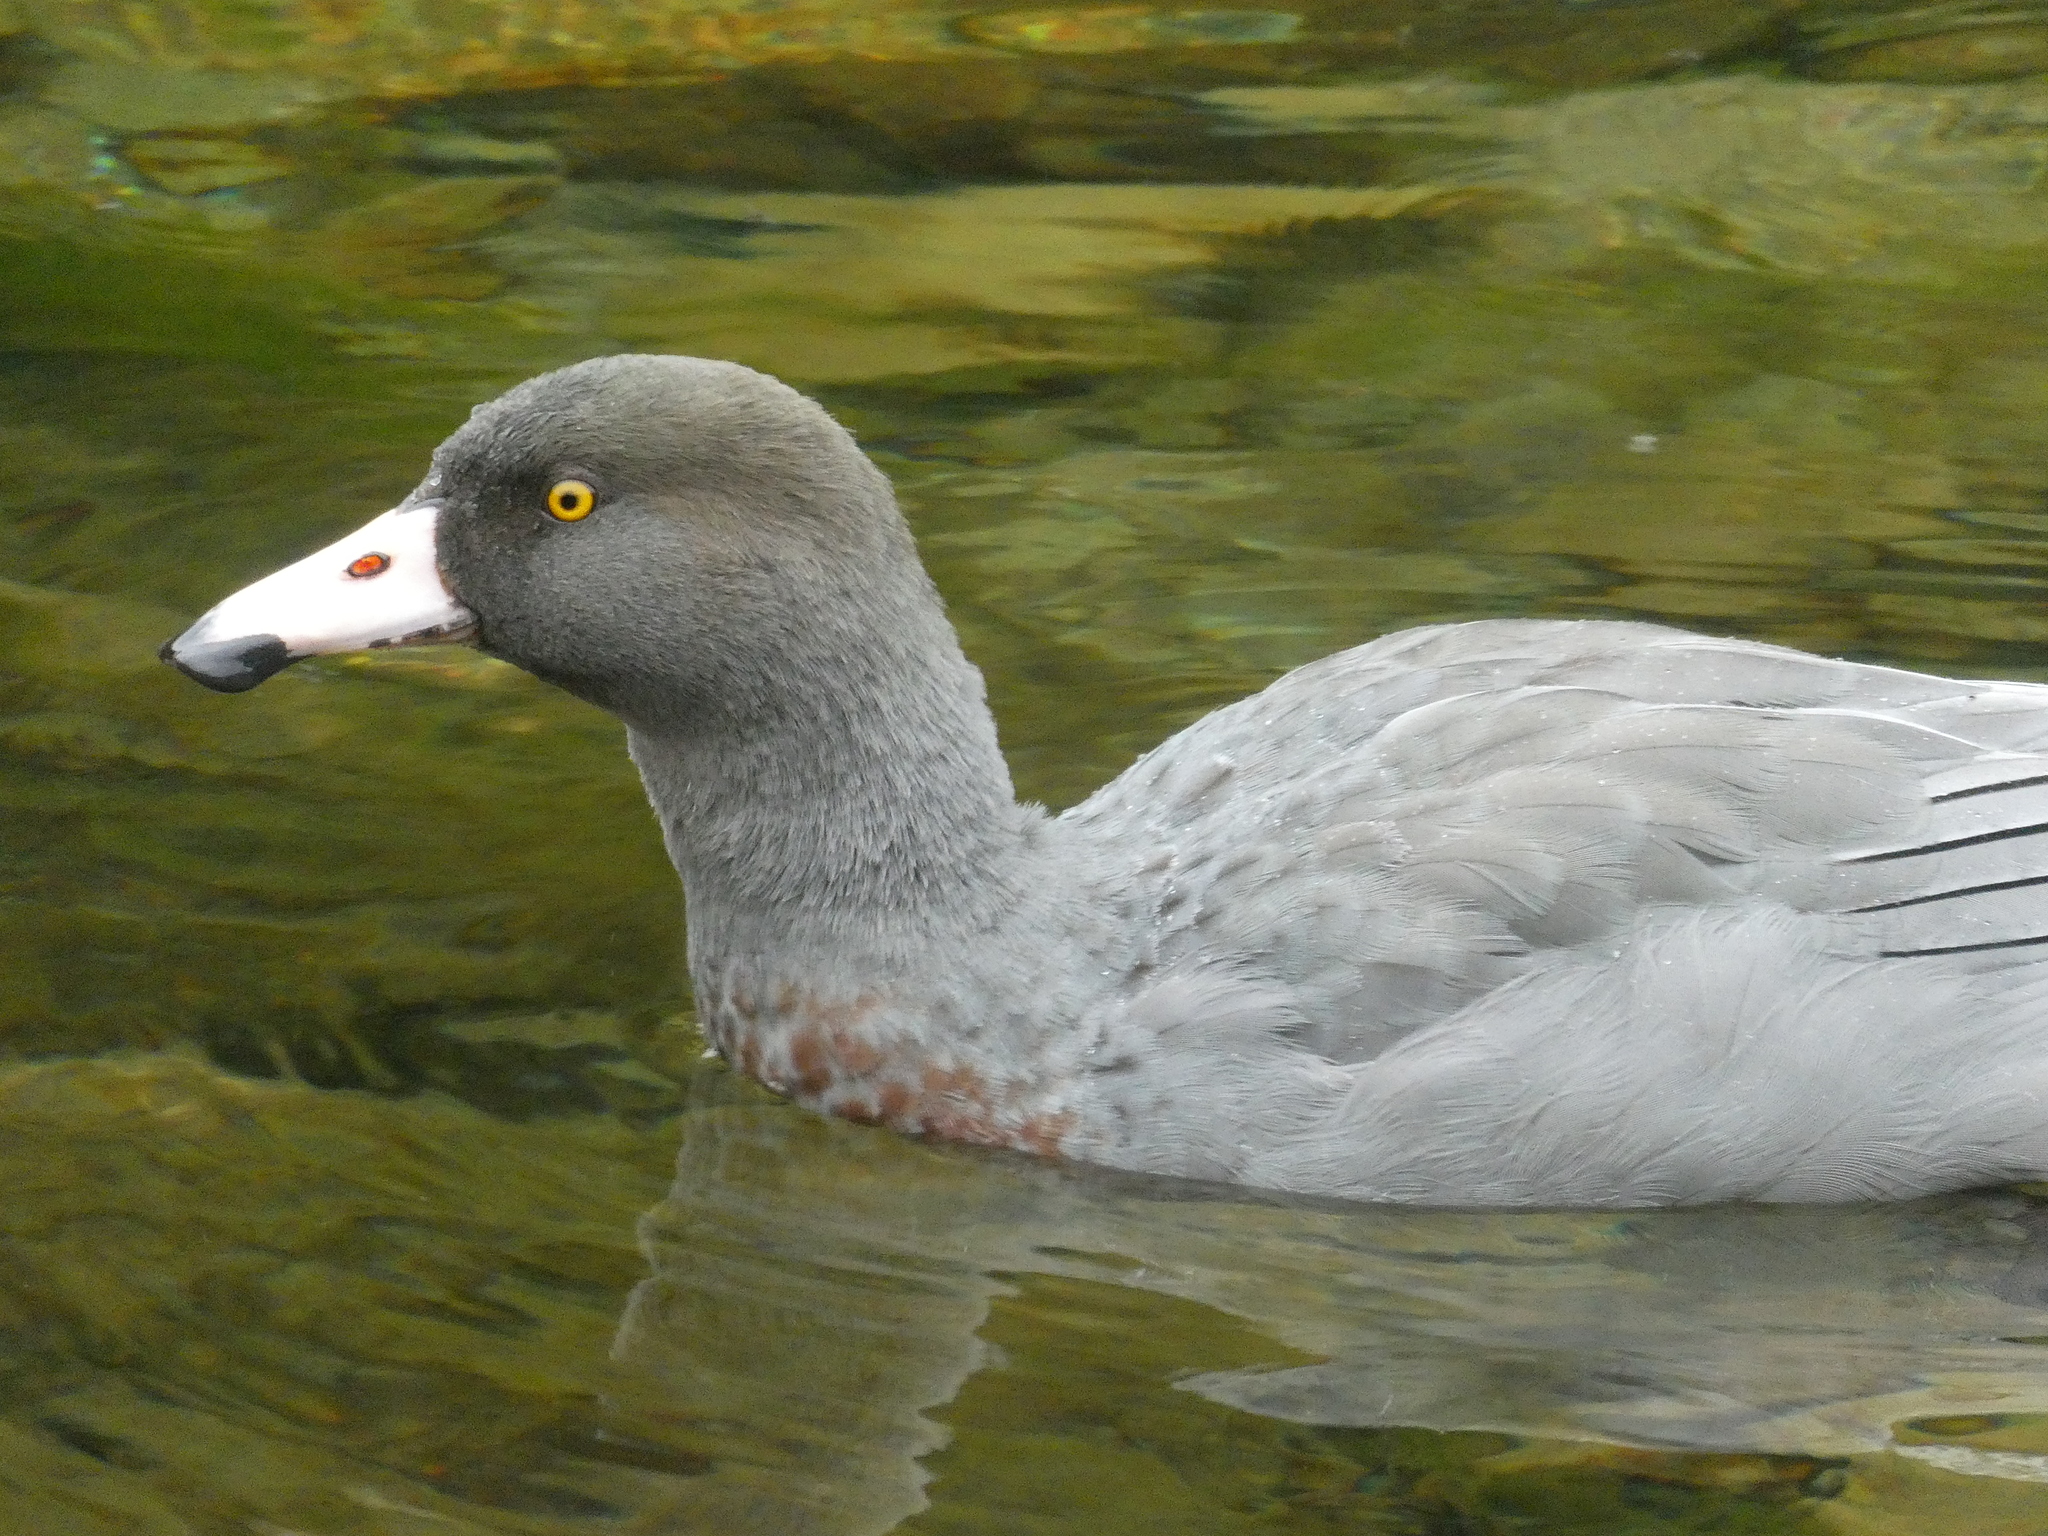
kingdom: Animalia
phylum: Chordata
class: Aves
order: Anseriformes
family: Anatidae
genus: Hymenolaimus
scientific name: Hymenolaimus malacorhynchos
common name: Blue duck
